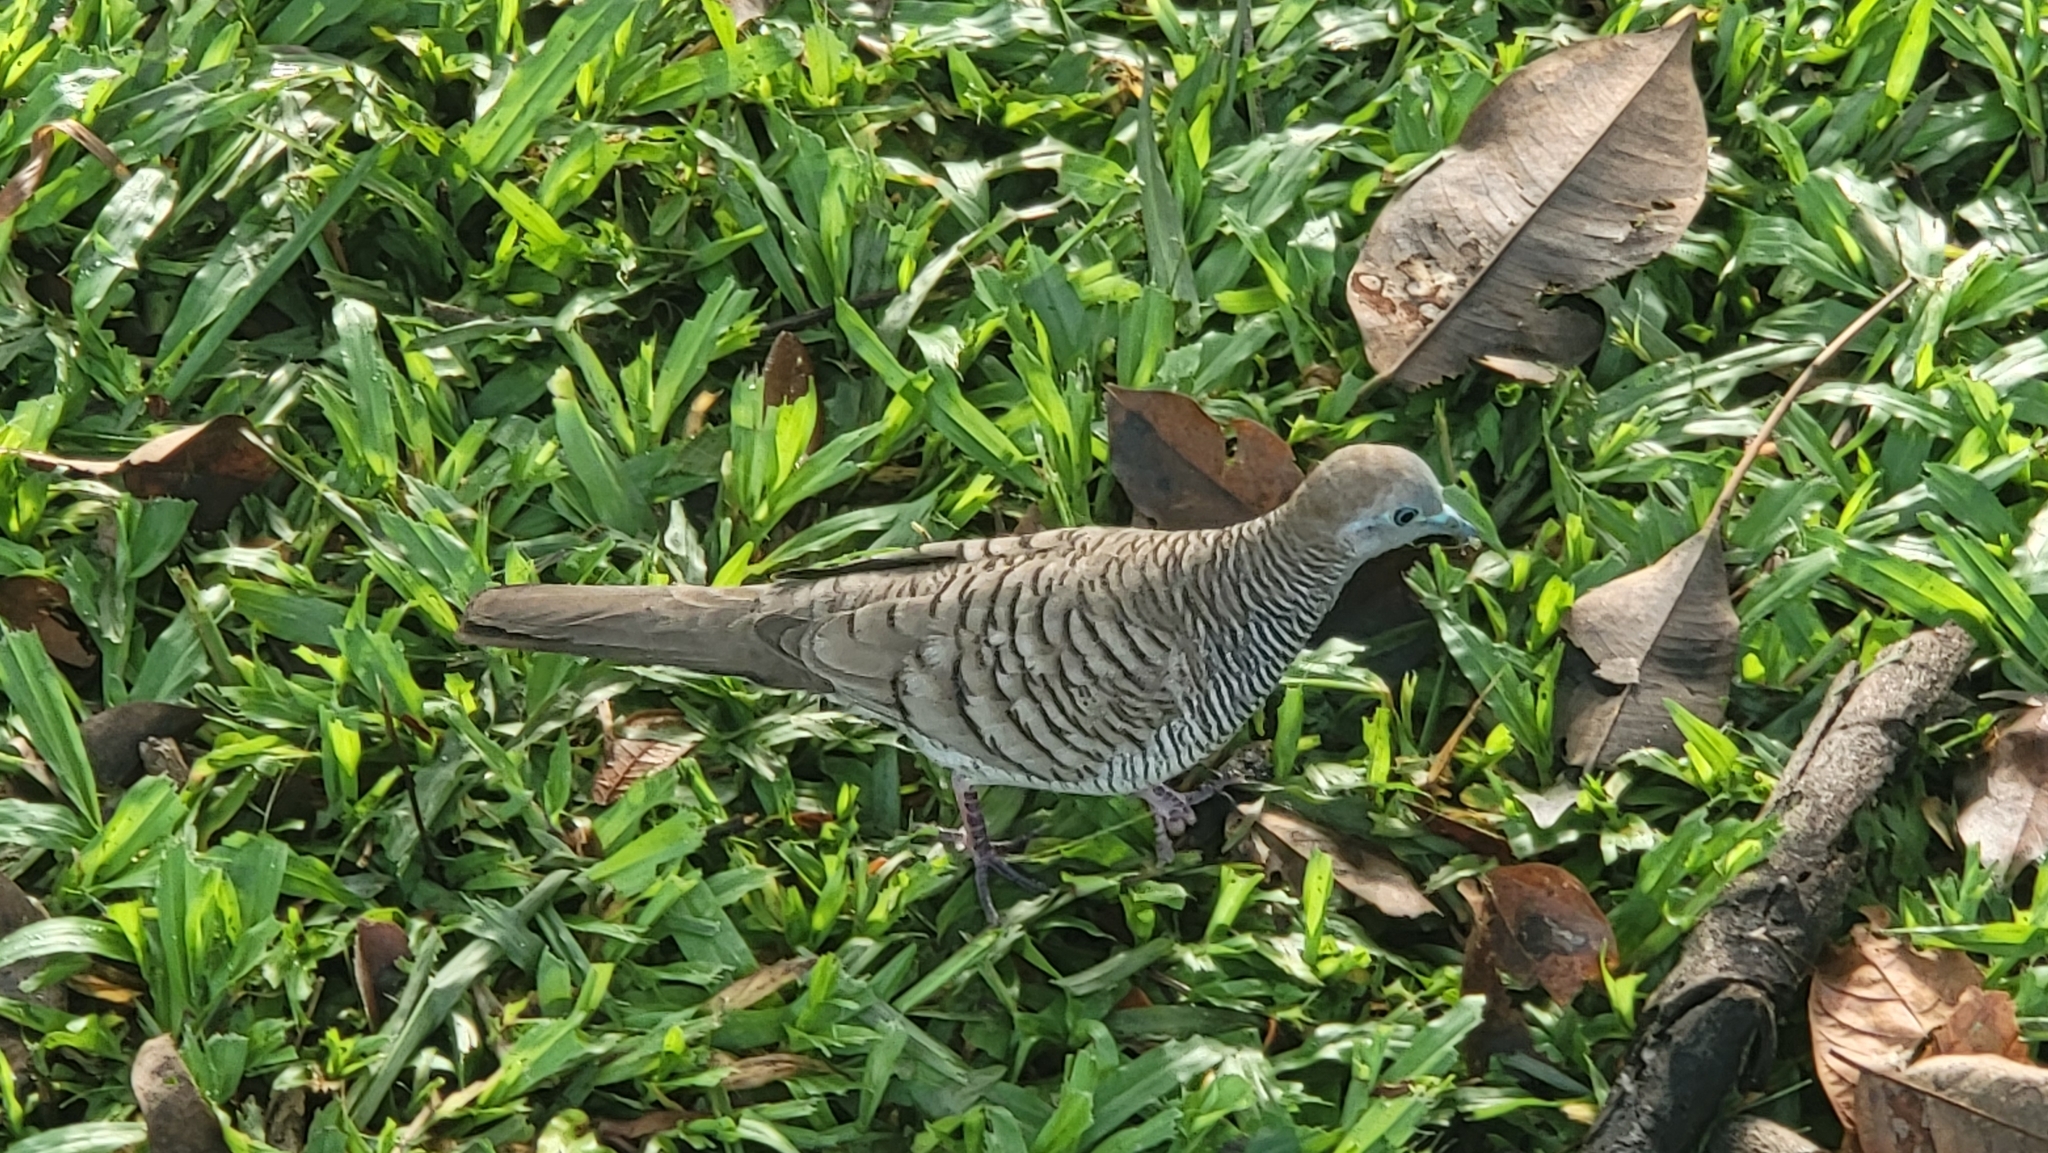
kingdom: Animalia
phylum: Chordata
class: Aves
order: Columbiformes
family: Columbidae
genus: Geopelia
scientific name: Geopelia striata
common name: Zebra dove
